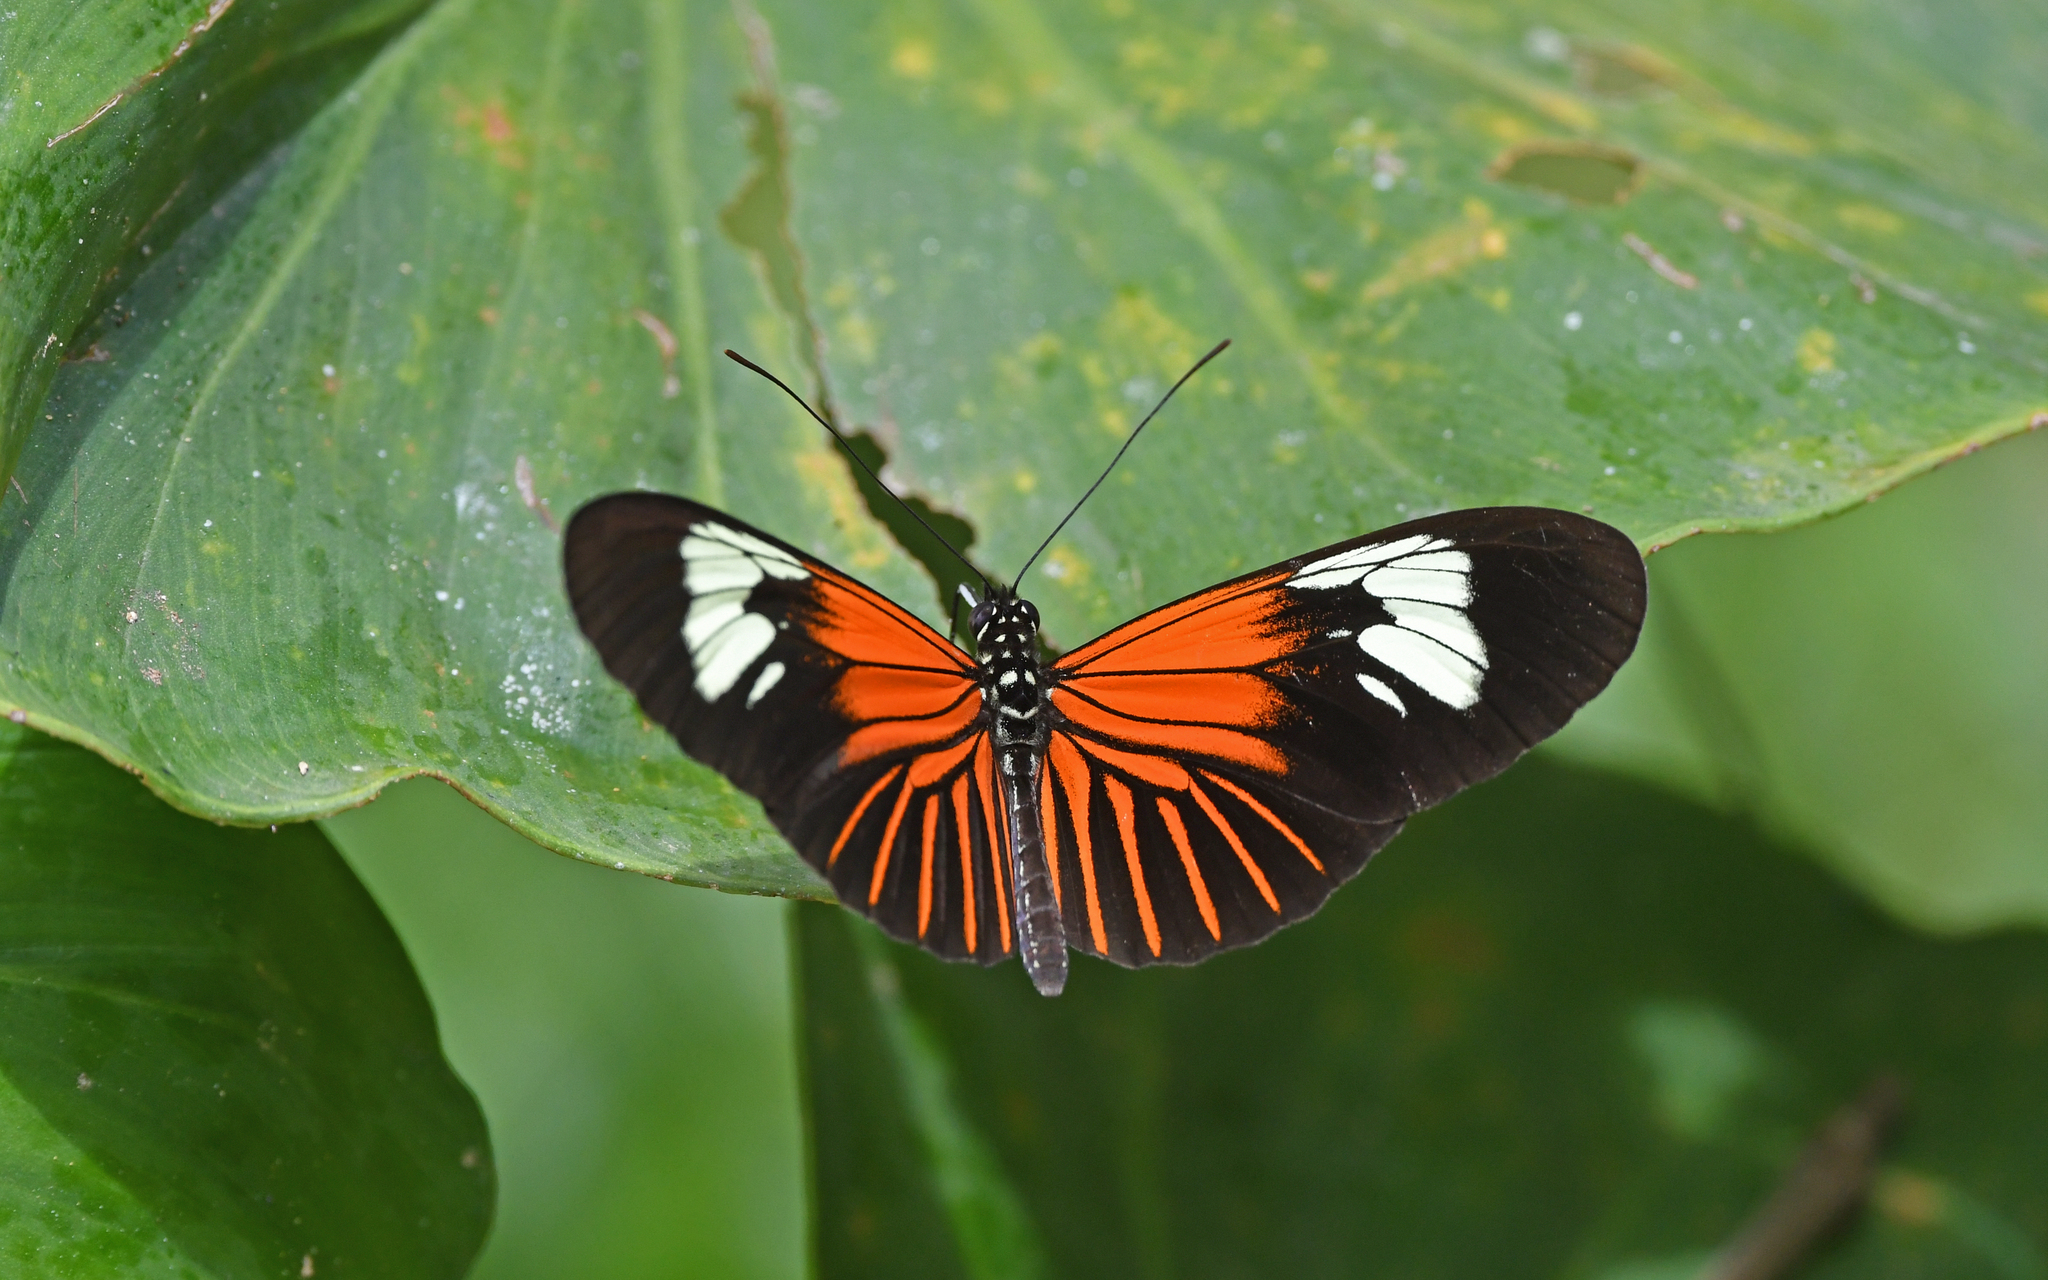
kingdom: Animalia
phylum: Arthropoda
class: Insecta
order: Lepidoptera
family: Nymphalidae
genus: Heliconius
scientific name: Heliconius erato
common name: Common patch longwing
